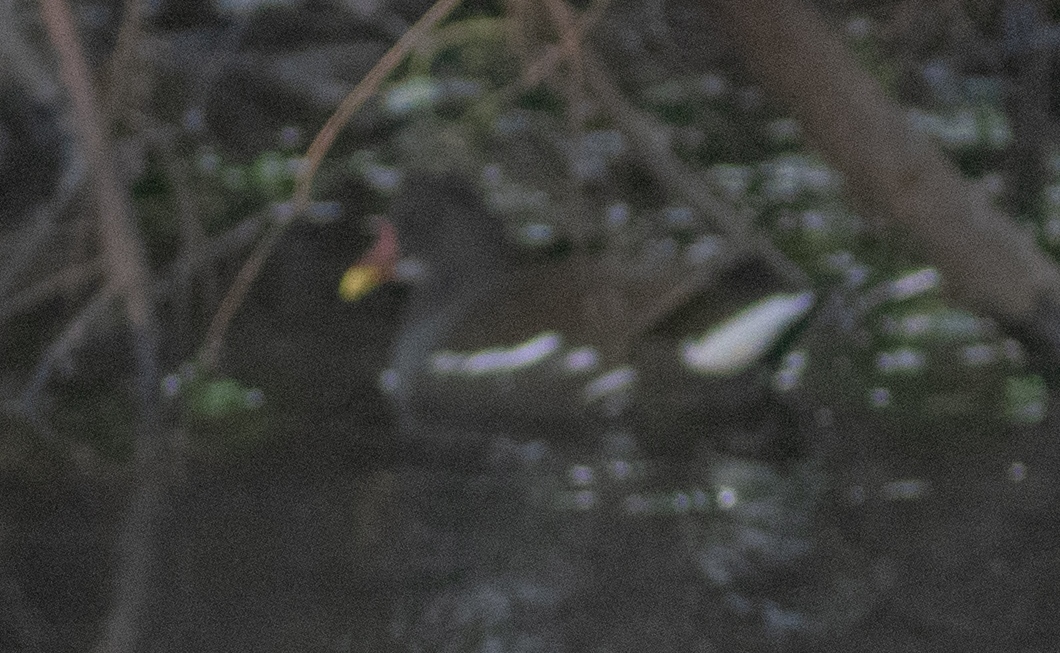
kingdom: Animalia
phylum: Chordata
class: Aves
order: Gruiformes
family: Rallidae
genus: Gallinula
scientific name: Gallinula chloropus
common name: Common moorhen
